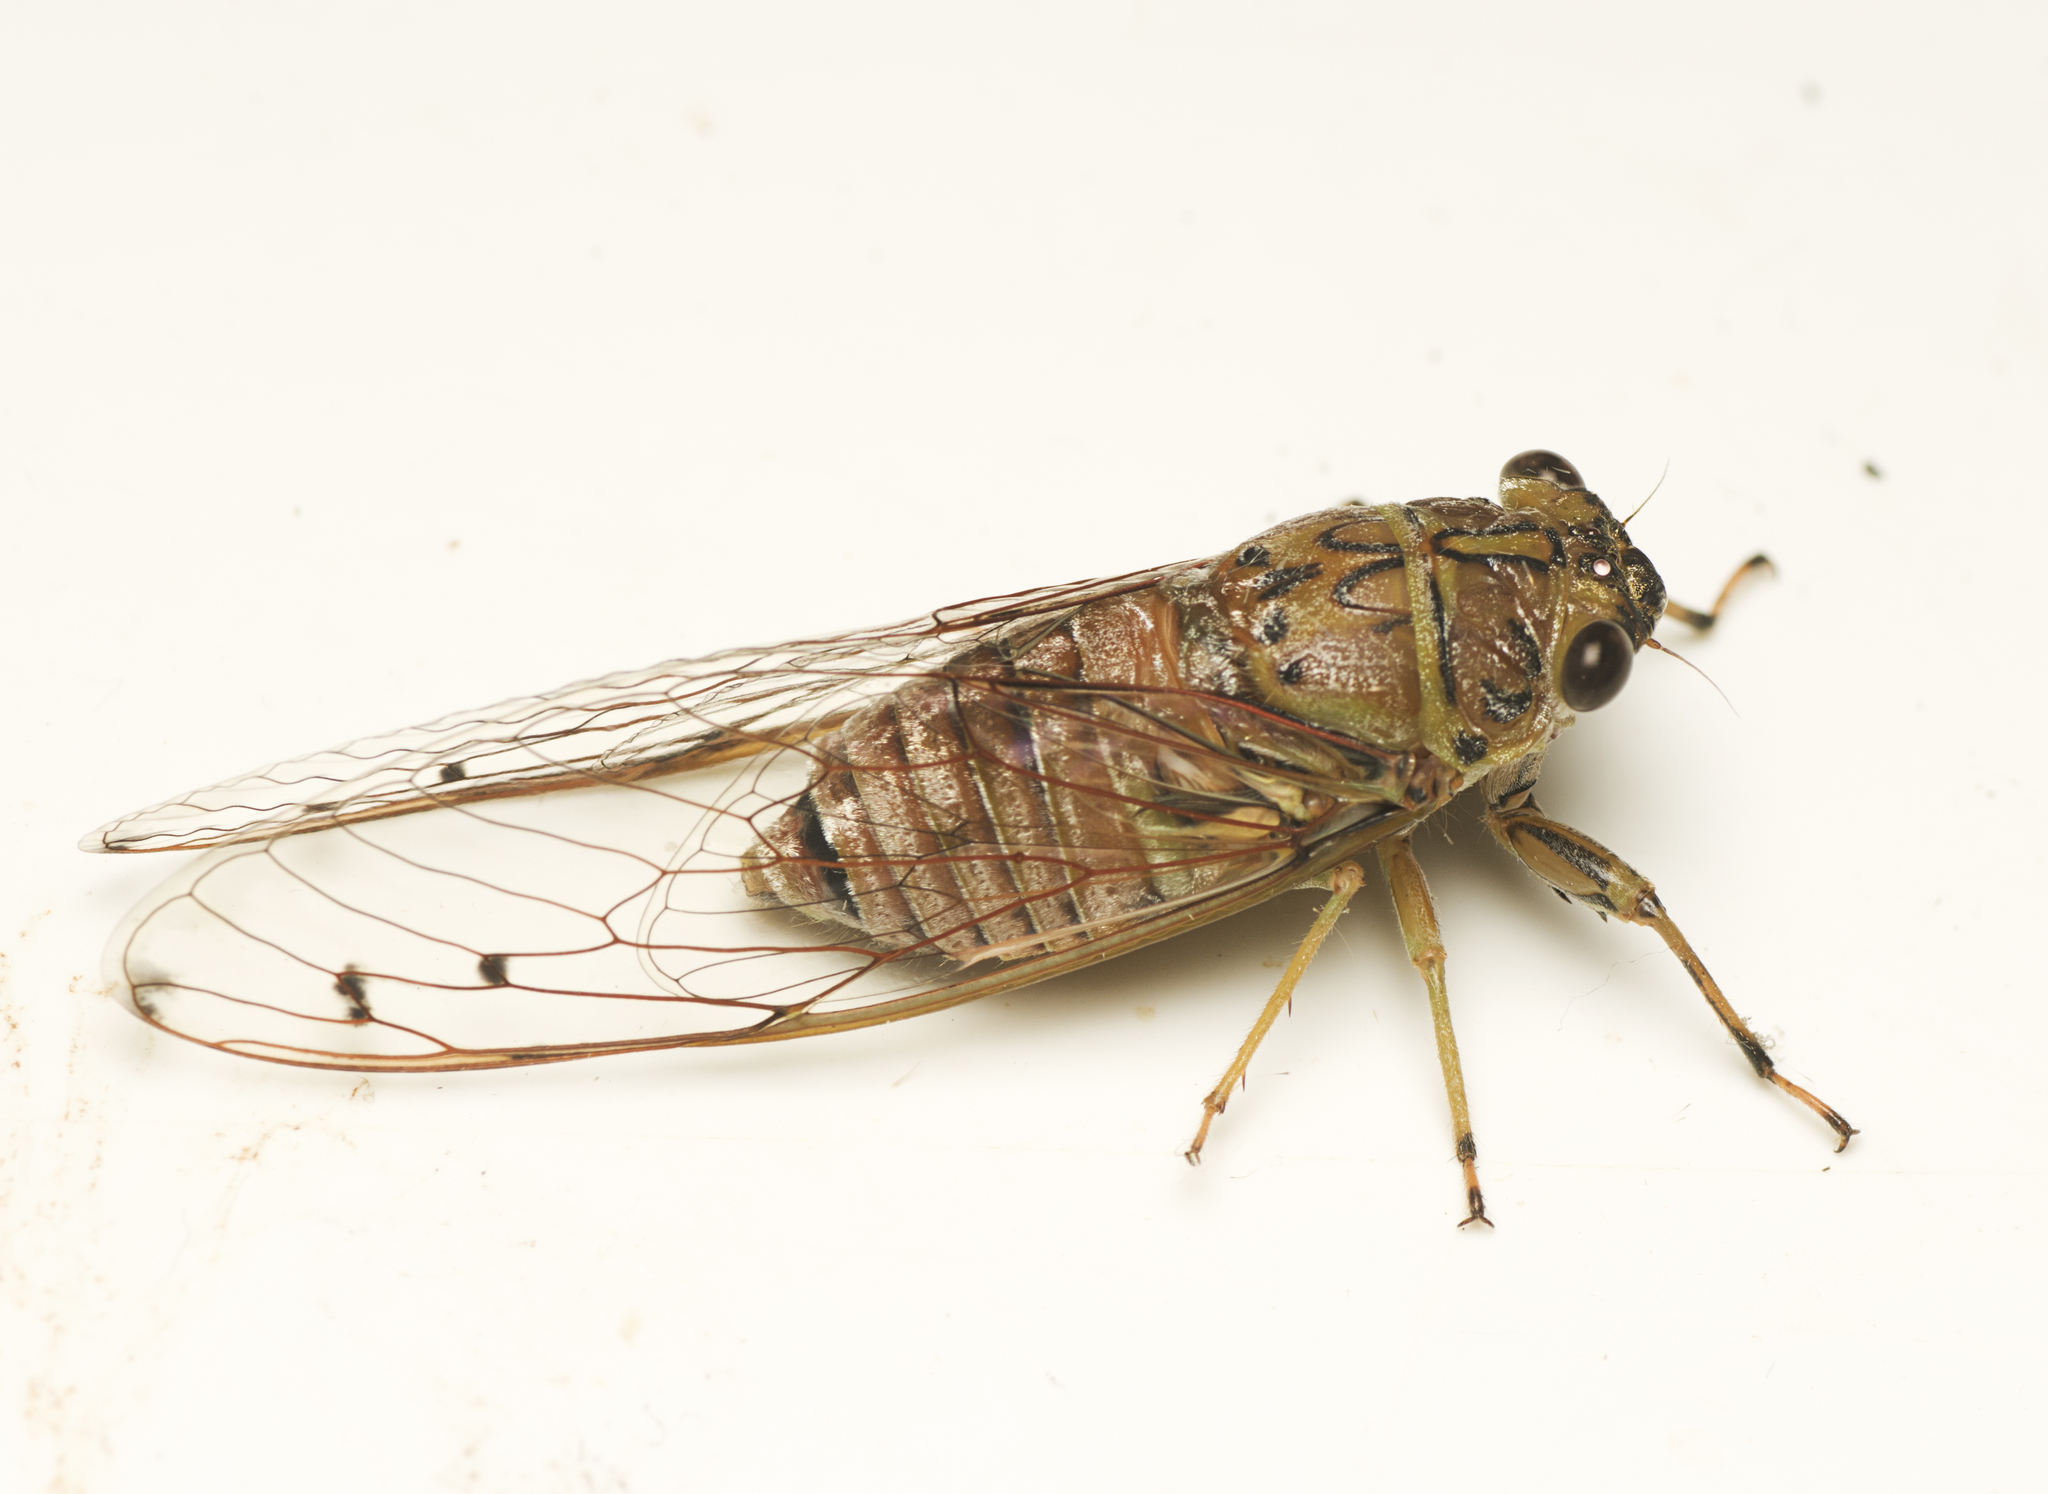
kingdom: Animalia
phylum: Arthropoda
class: Insecta
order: Hemiptera
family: Cicadidae
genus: Tamasa
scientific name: Tamasa tristigma
